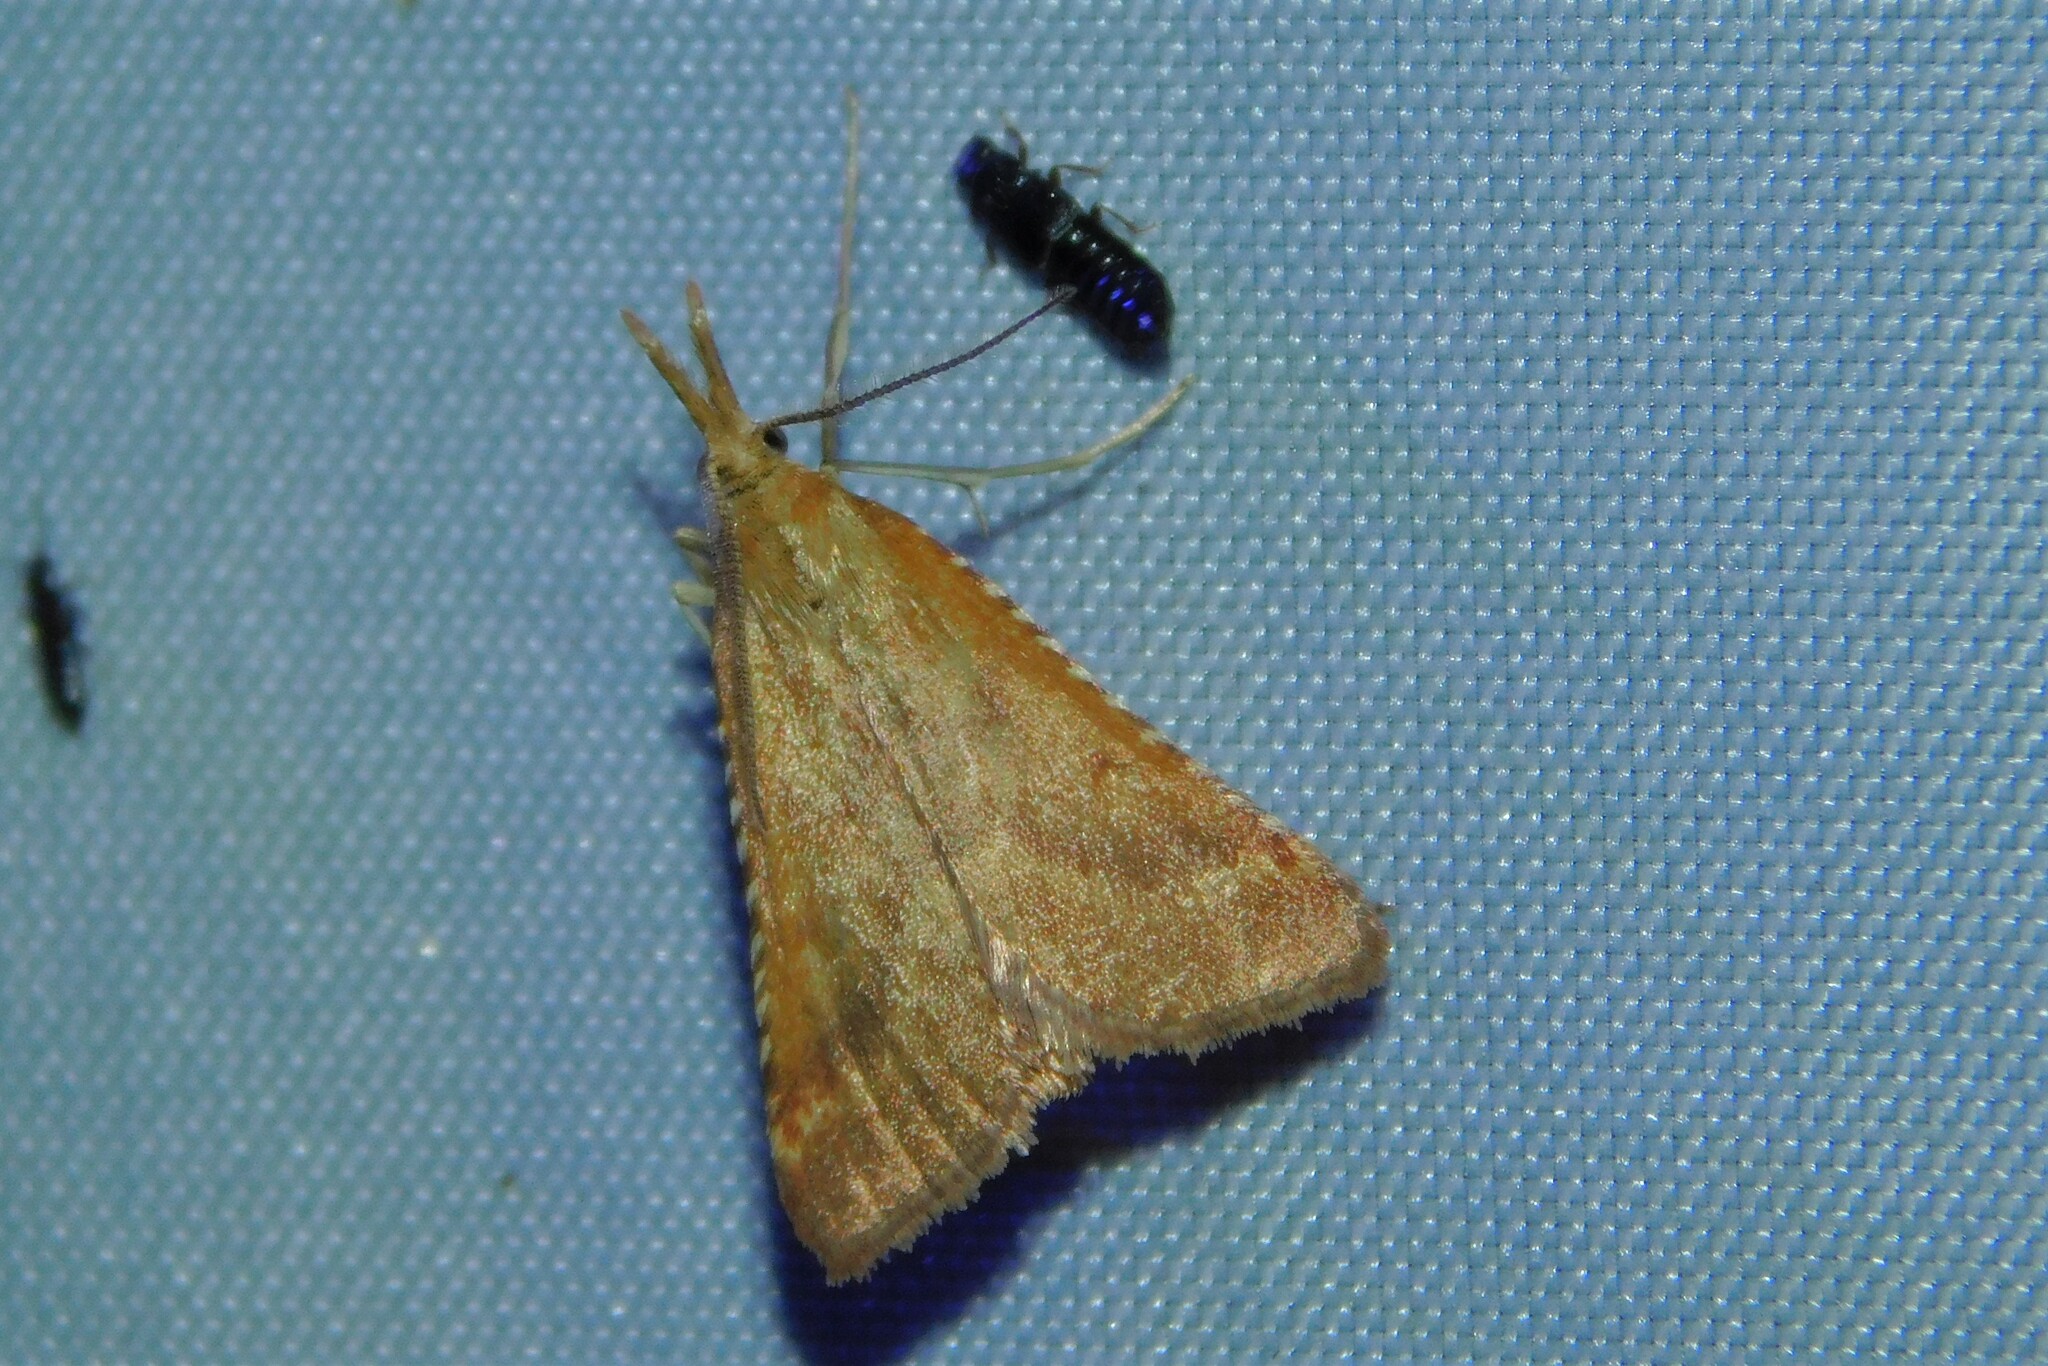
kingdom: Animalia
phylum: Arthropoda
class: Insecta
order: Lepidoptera
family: Pyralidae
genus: Synaphe
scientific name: Synaphe punctalis
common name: Long-legged tabby
